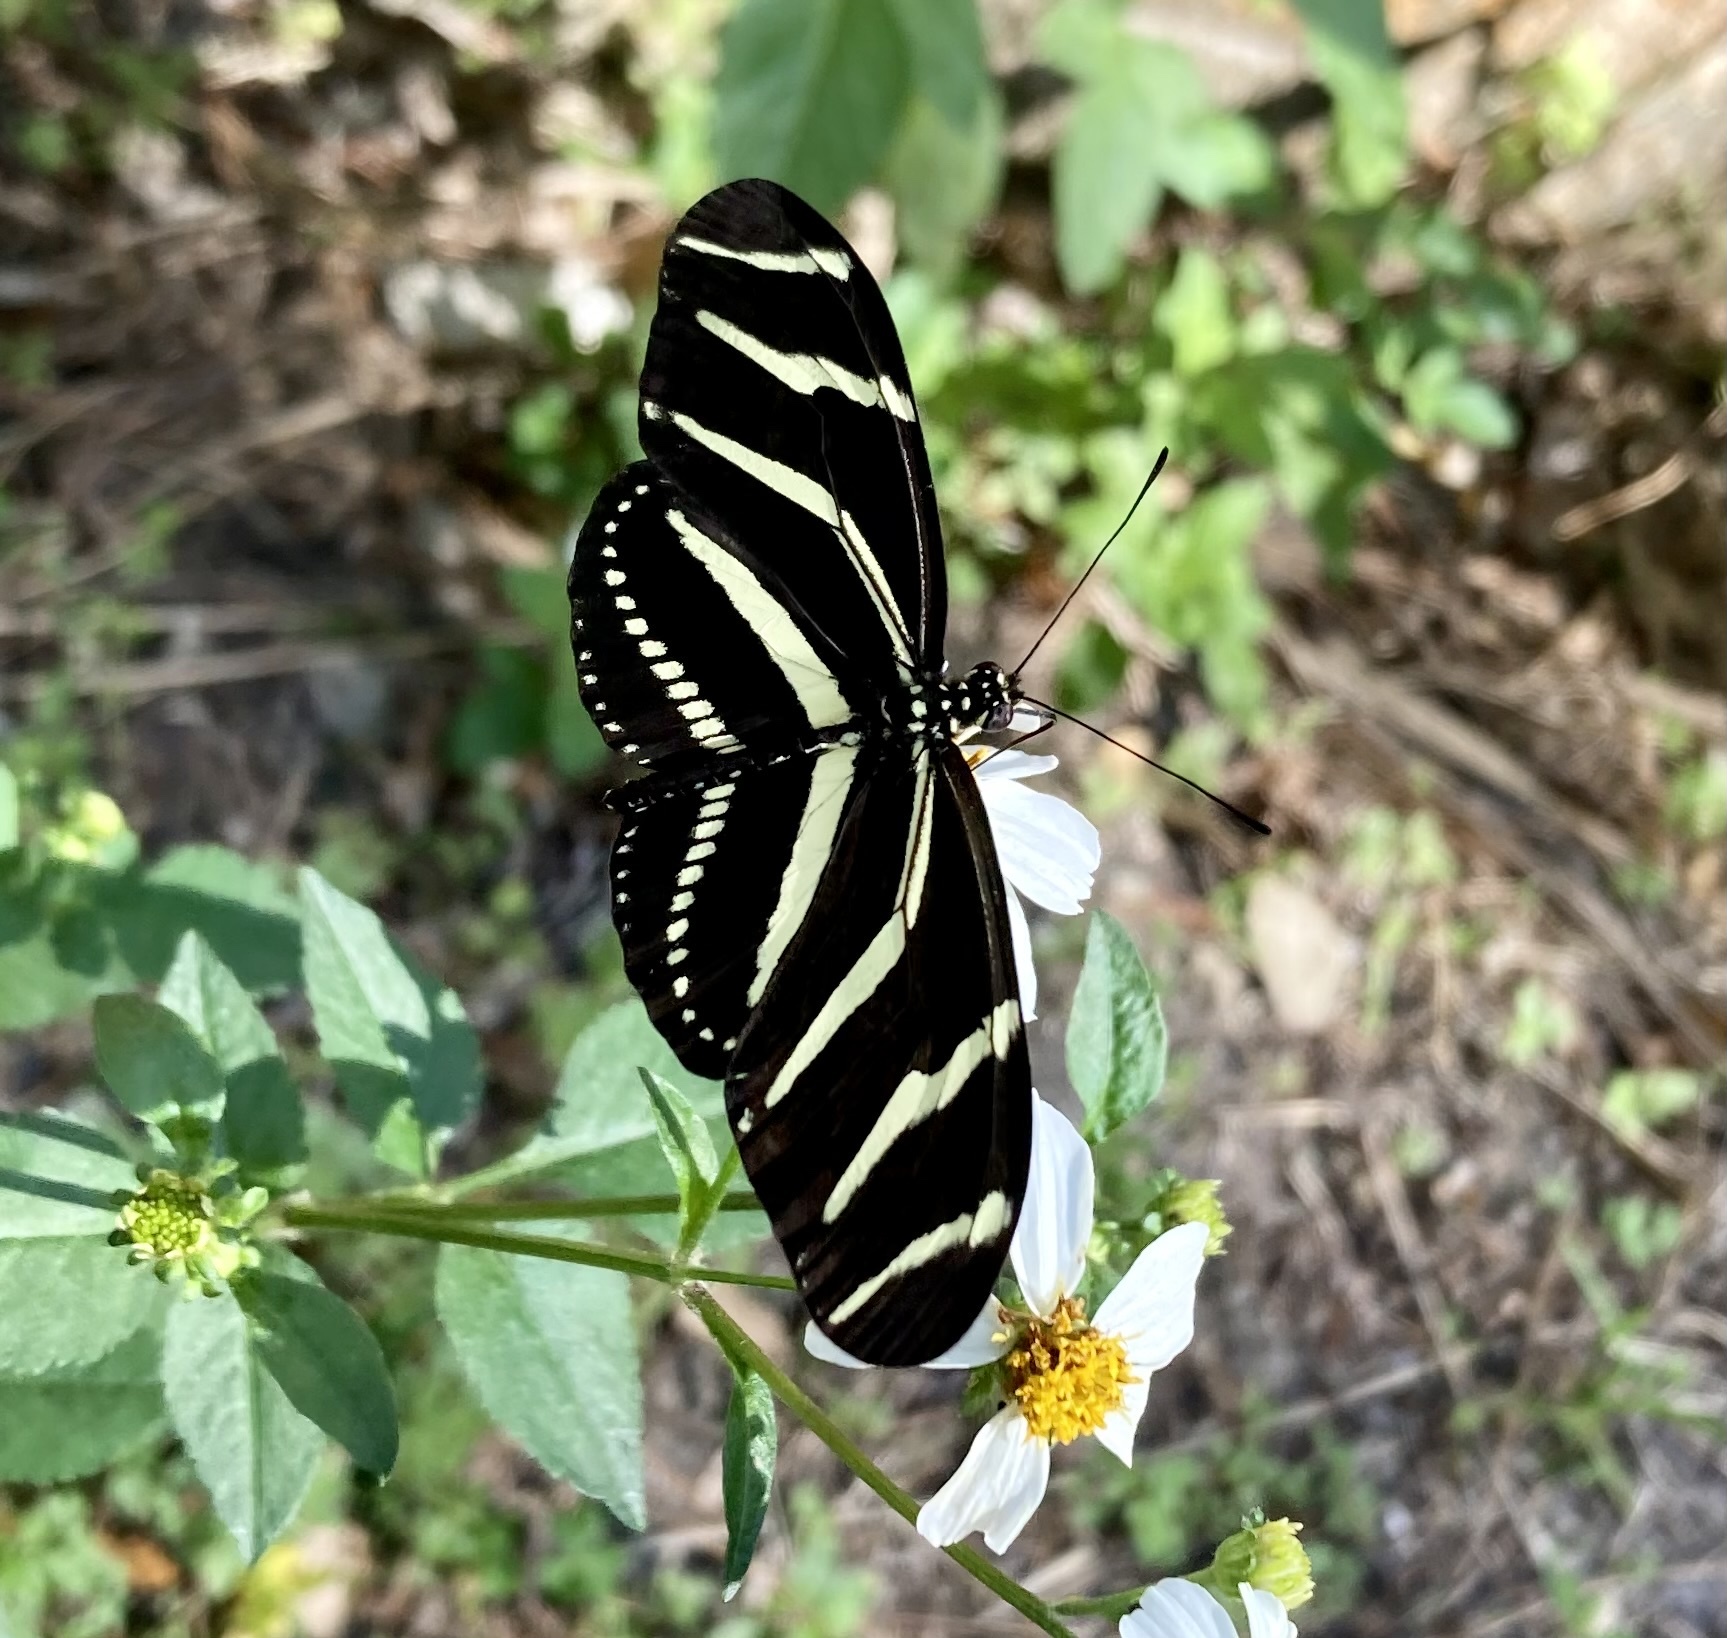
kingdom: Animalia
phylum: Arthropoda
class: Insecta
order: Lepidoptera
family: Nymphalidae
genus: Heliconius
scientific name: Heliconius charithonia
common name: Zebra long wing
